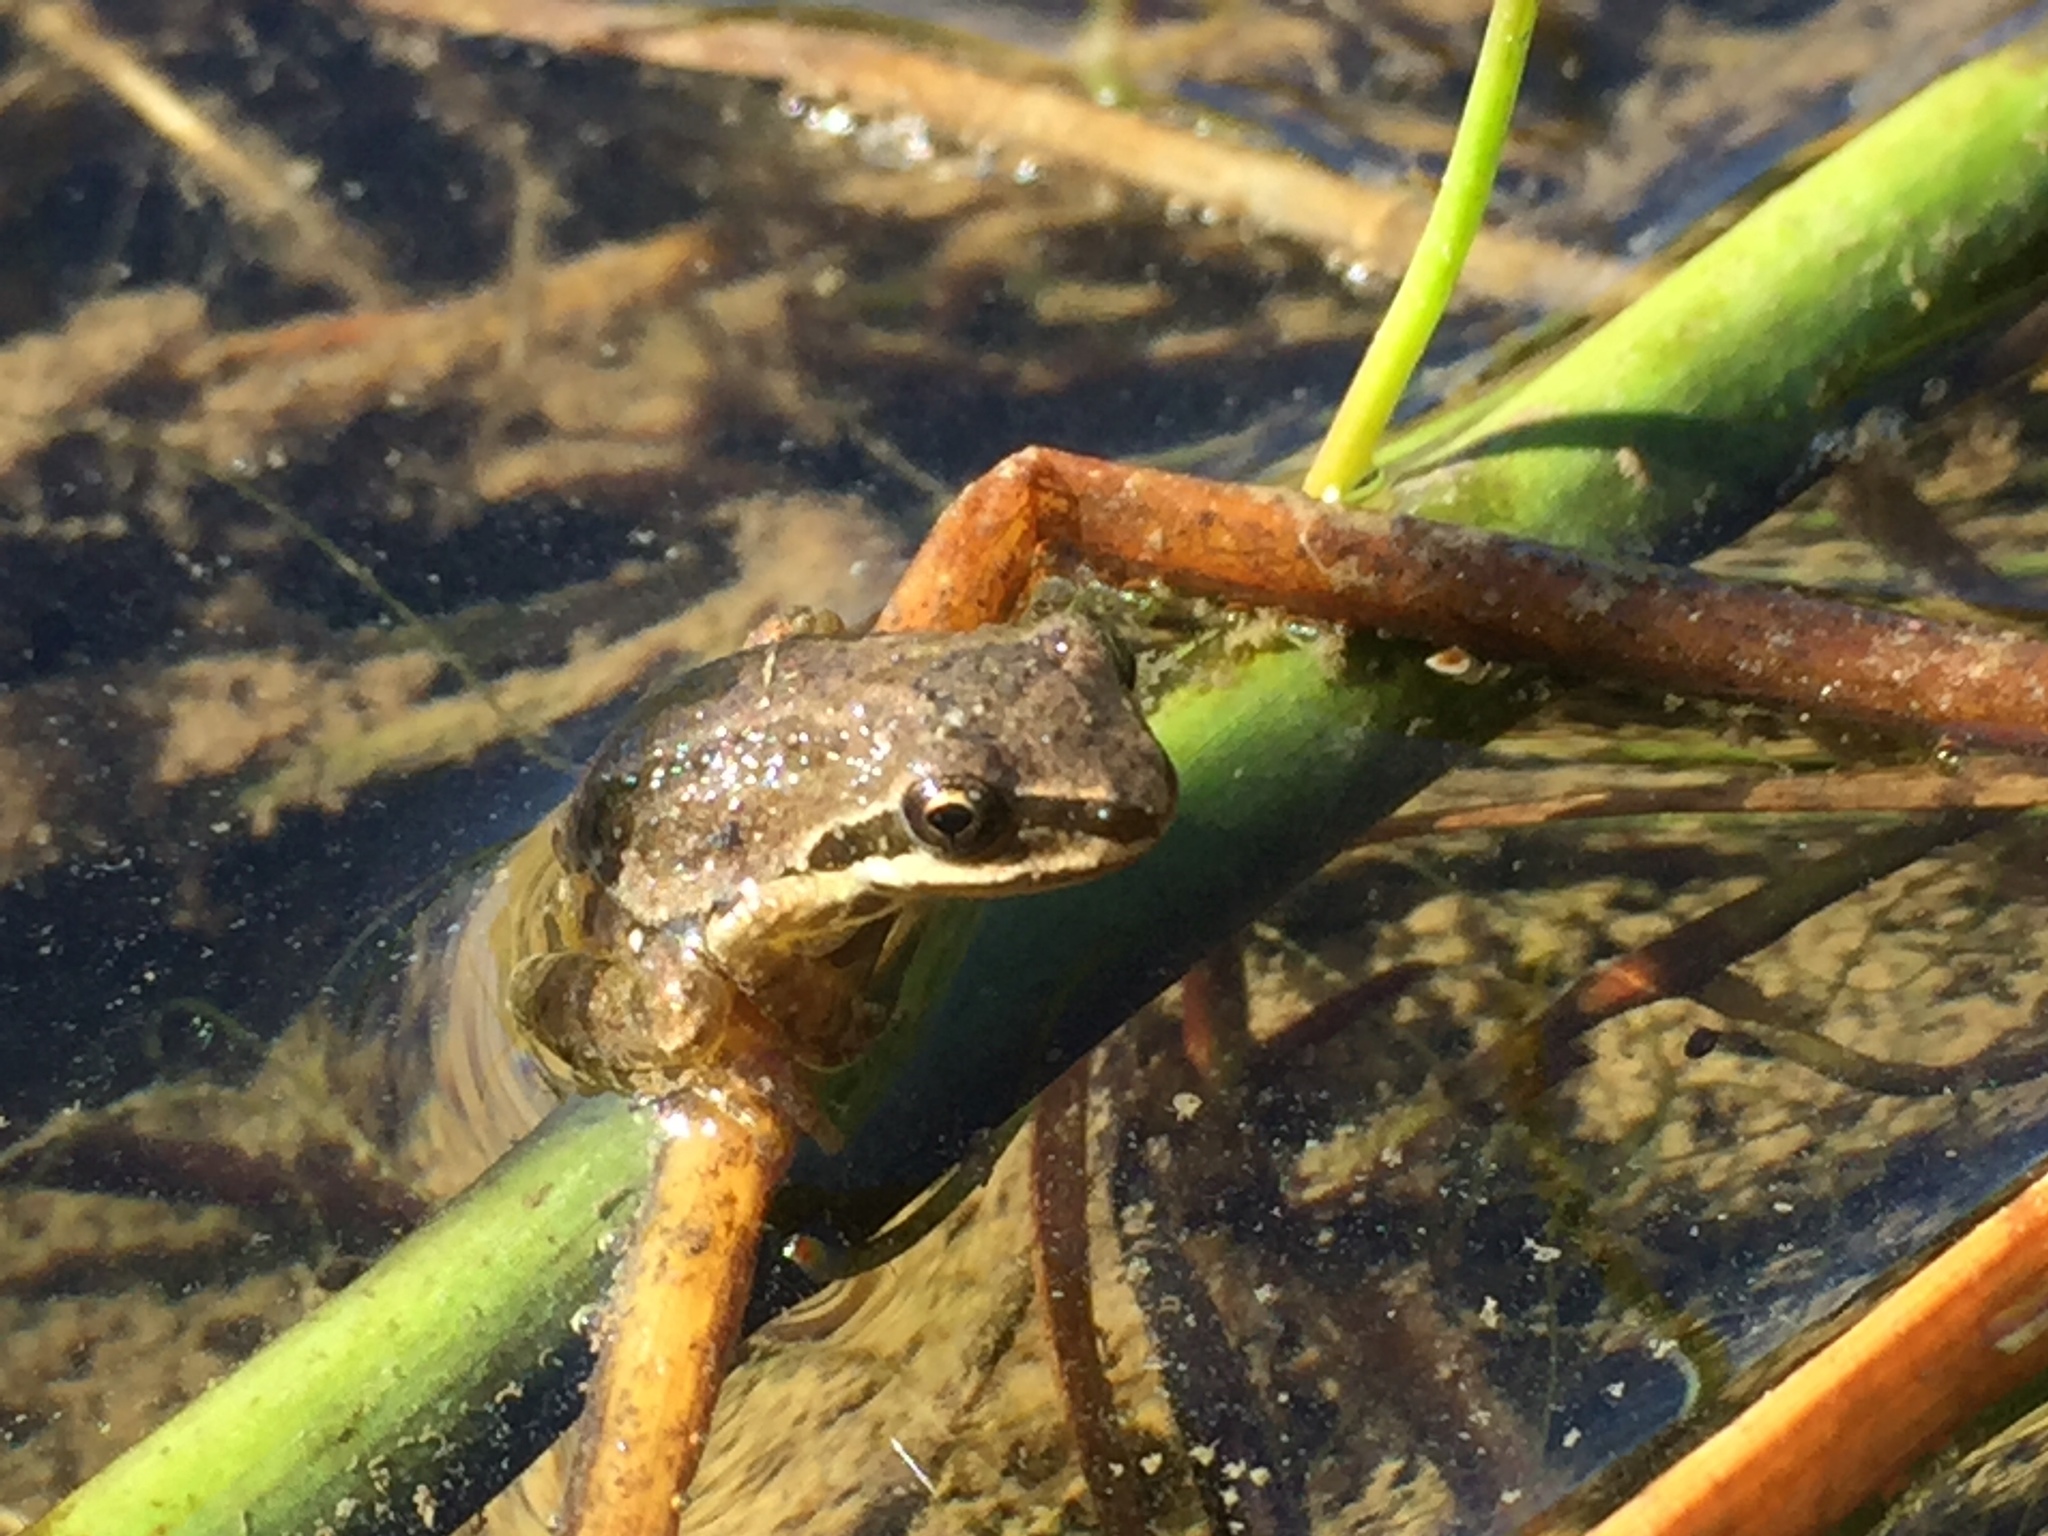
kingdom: Animalia
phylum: Chordata
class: Amphibia
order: Anura
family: Hylidae
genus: Pseudacris
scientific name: Pseudacris regilla
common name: Pacific chorus frog
